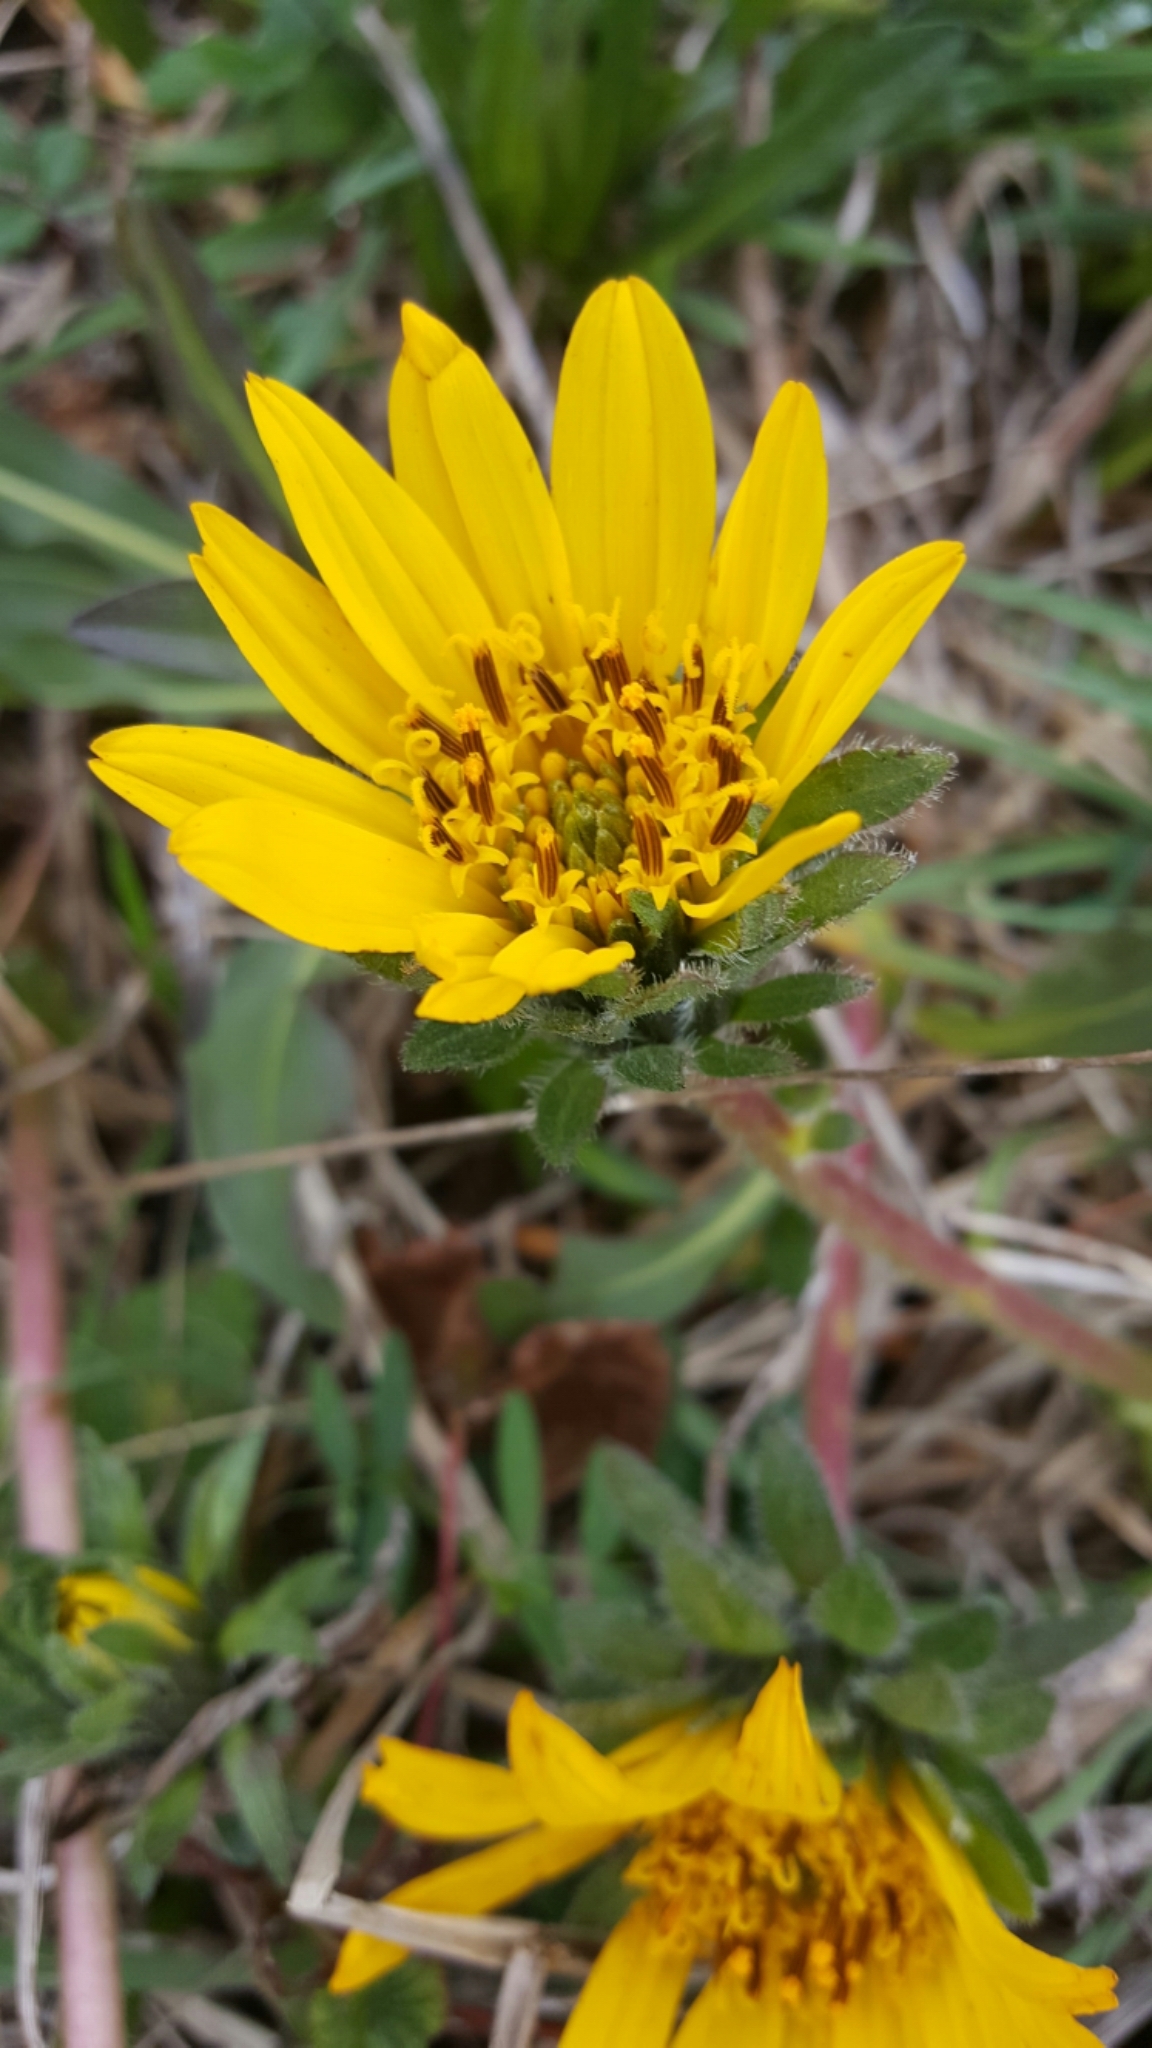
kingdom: Plantae
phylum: Tracheophyta
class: Magnoliopsida
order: Asterales
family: Asteraceae
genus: Wyethia
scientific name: Wyethia angustifolia
